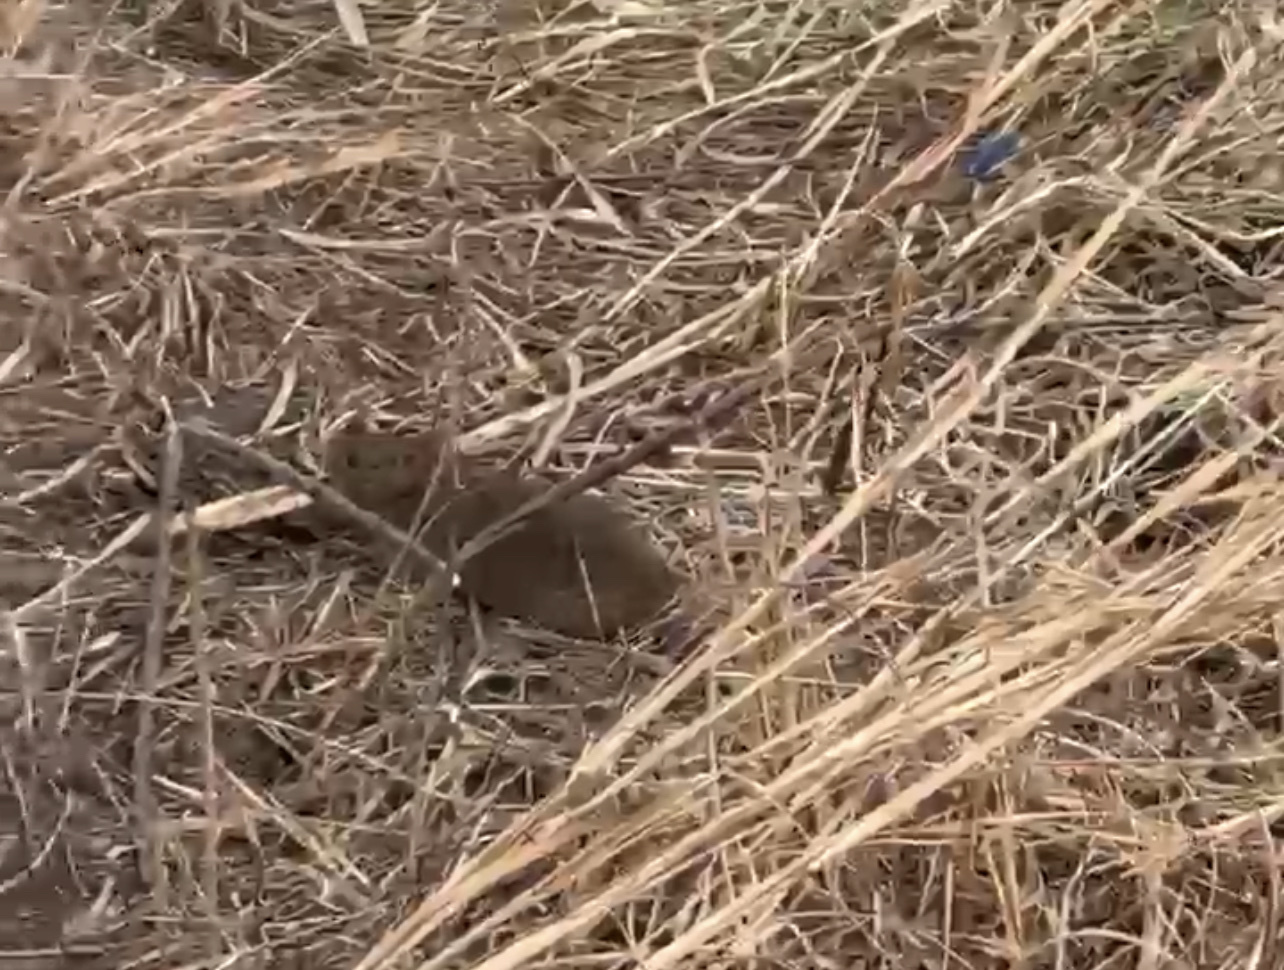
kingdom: Animalia
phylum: Chordata
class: Mammalia
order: Rodentia
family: Cricetidae
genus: Sigmodon
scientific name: Sigmodon hispidus
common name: Hispid cotton rat
